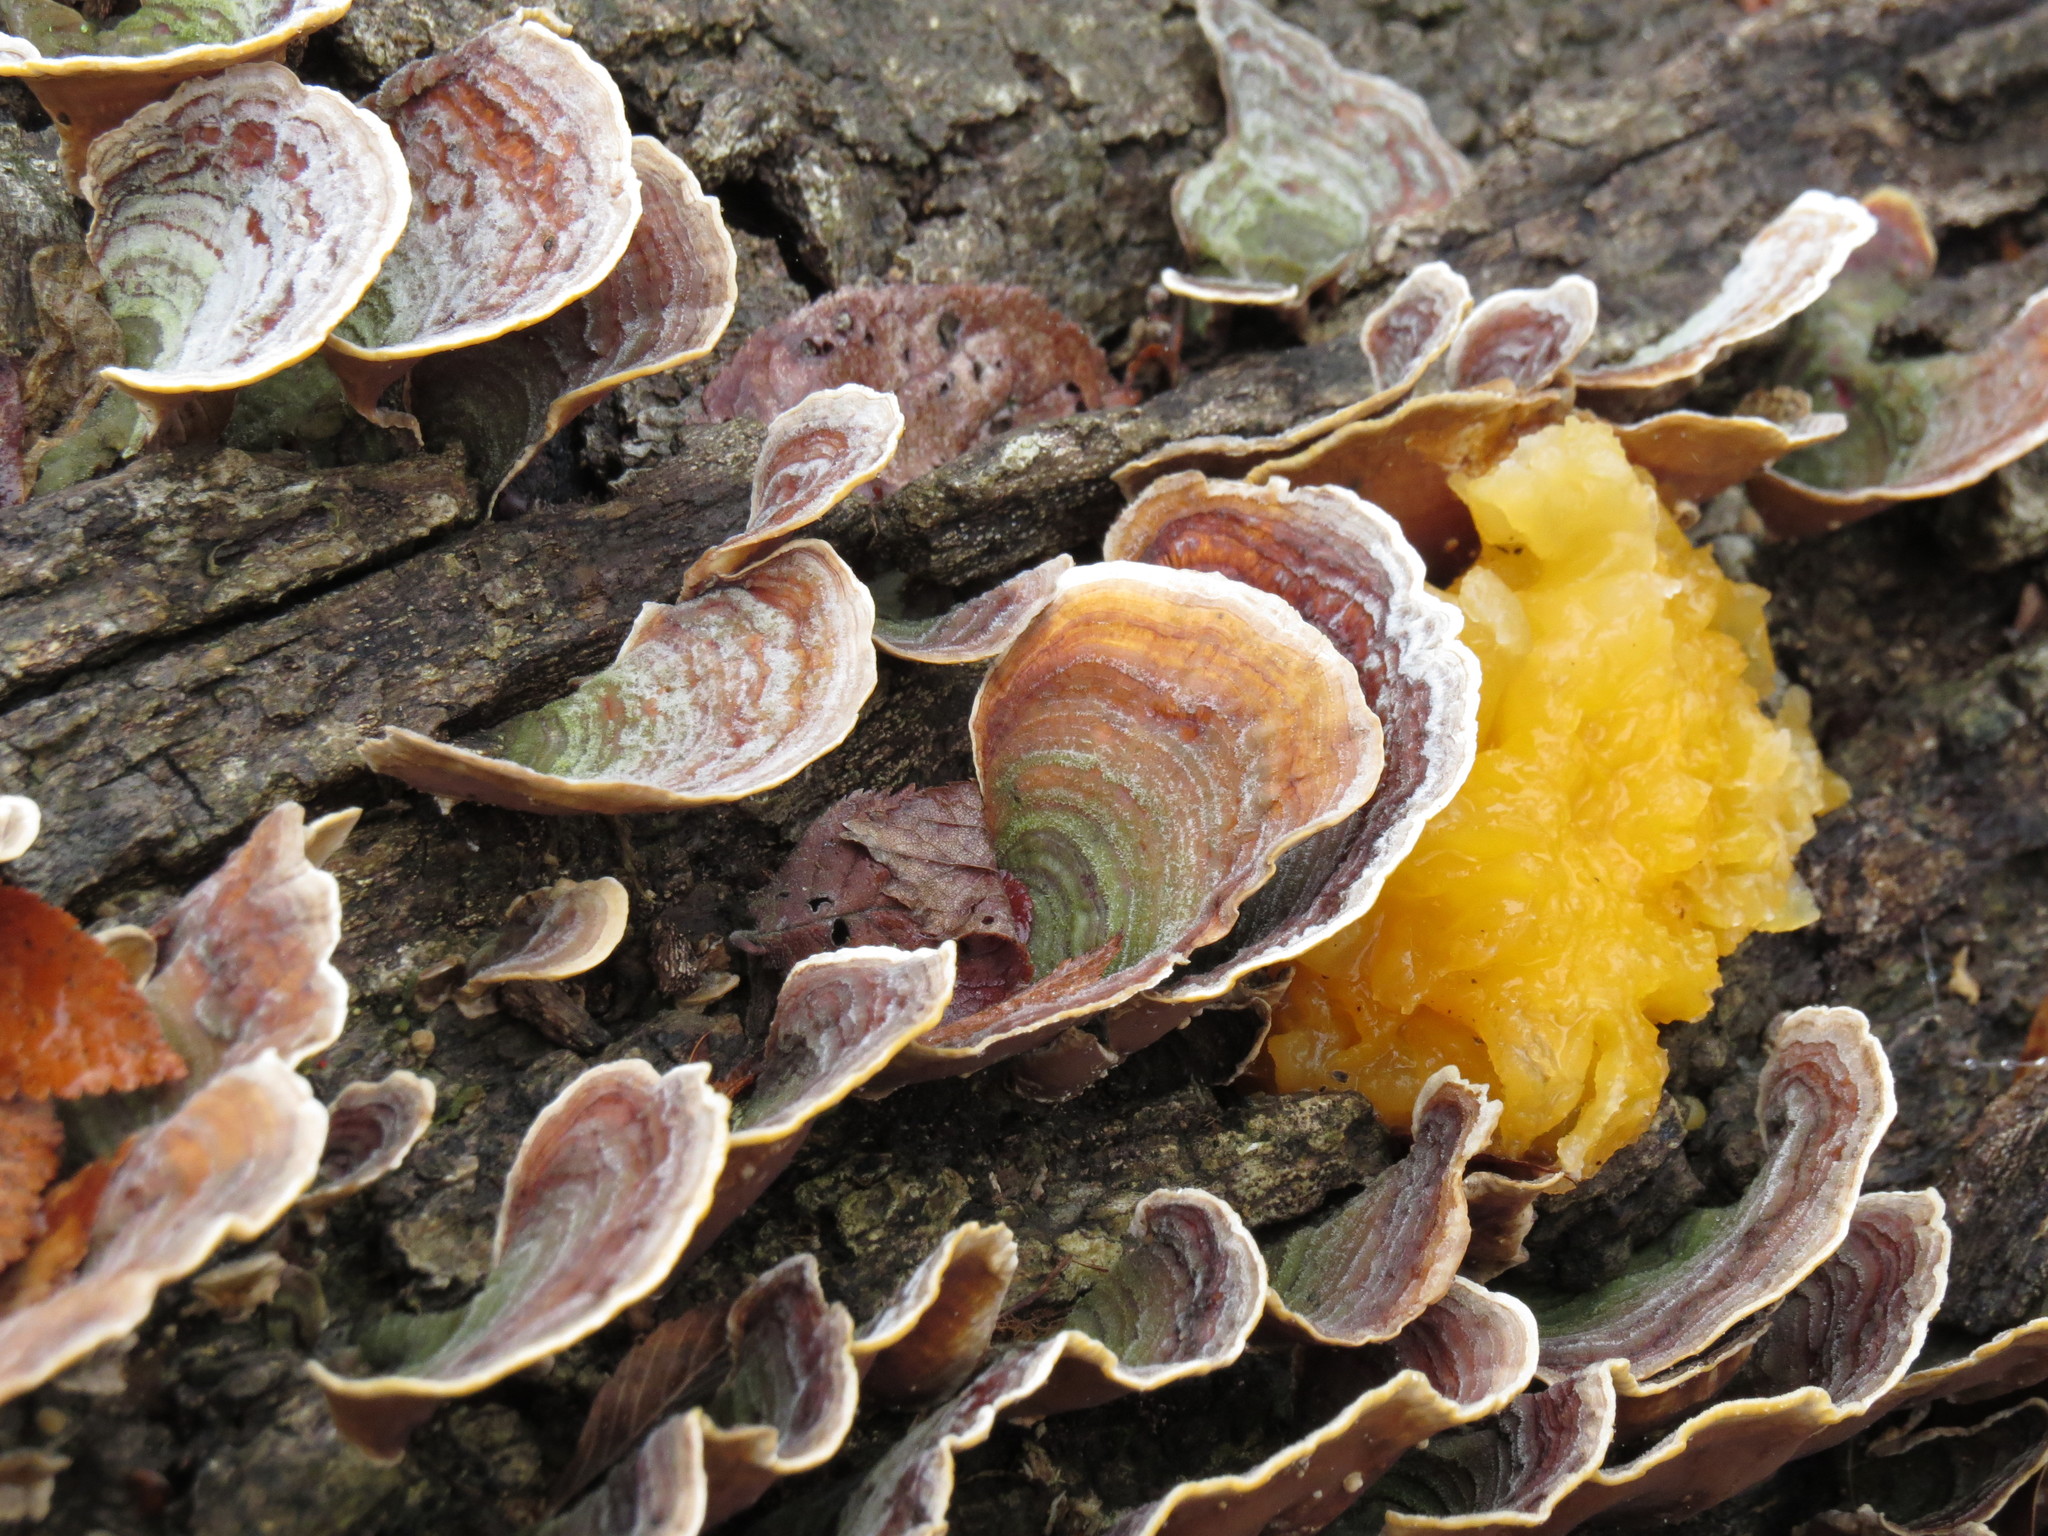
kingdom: Fungi
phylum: Basidiomycota
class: Tremellomycetes
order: Tremellales
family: Tremellaceae
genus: Tremella
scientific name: Tremella mesenterica
